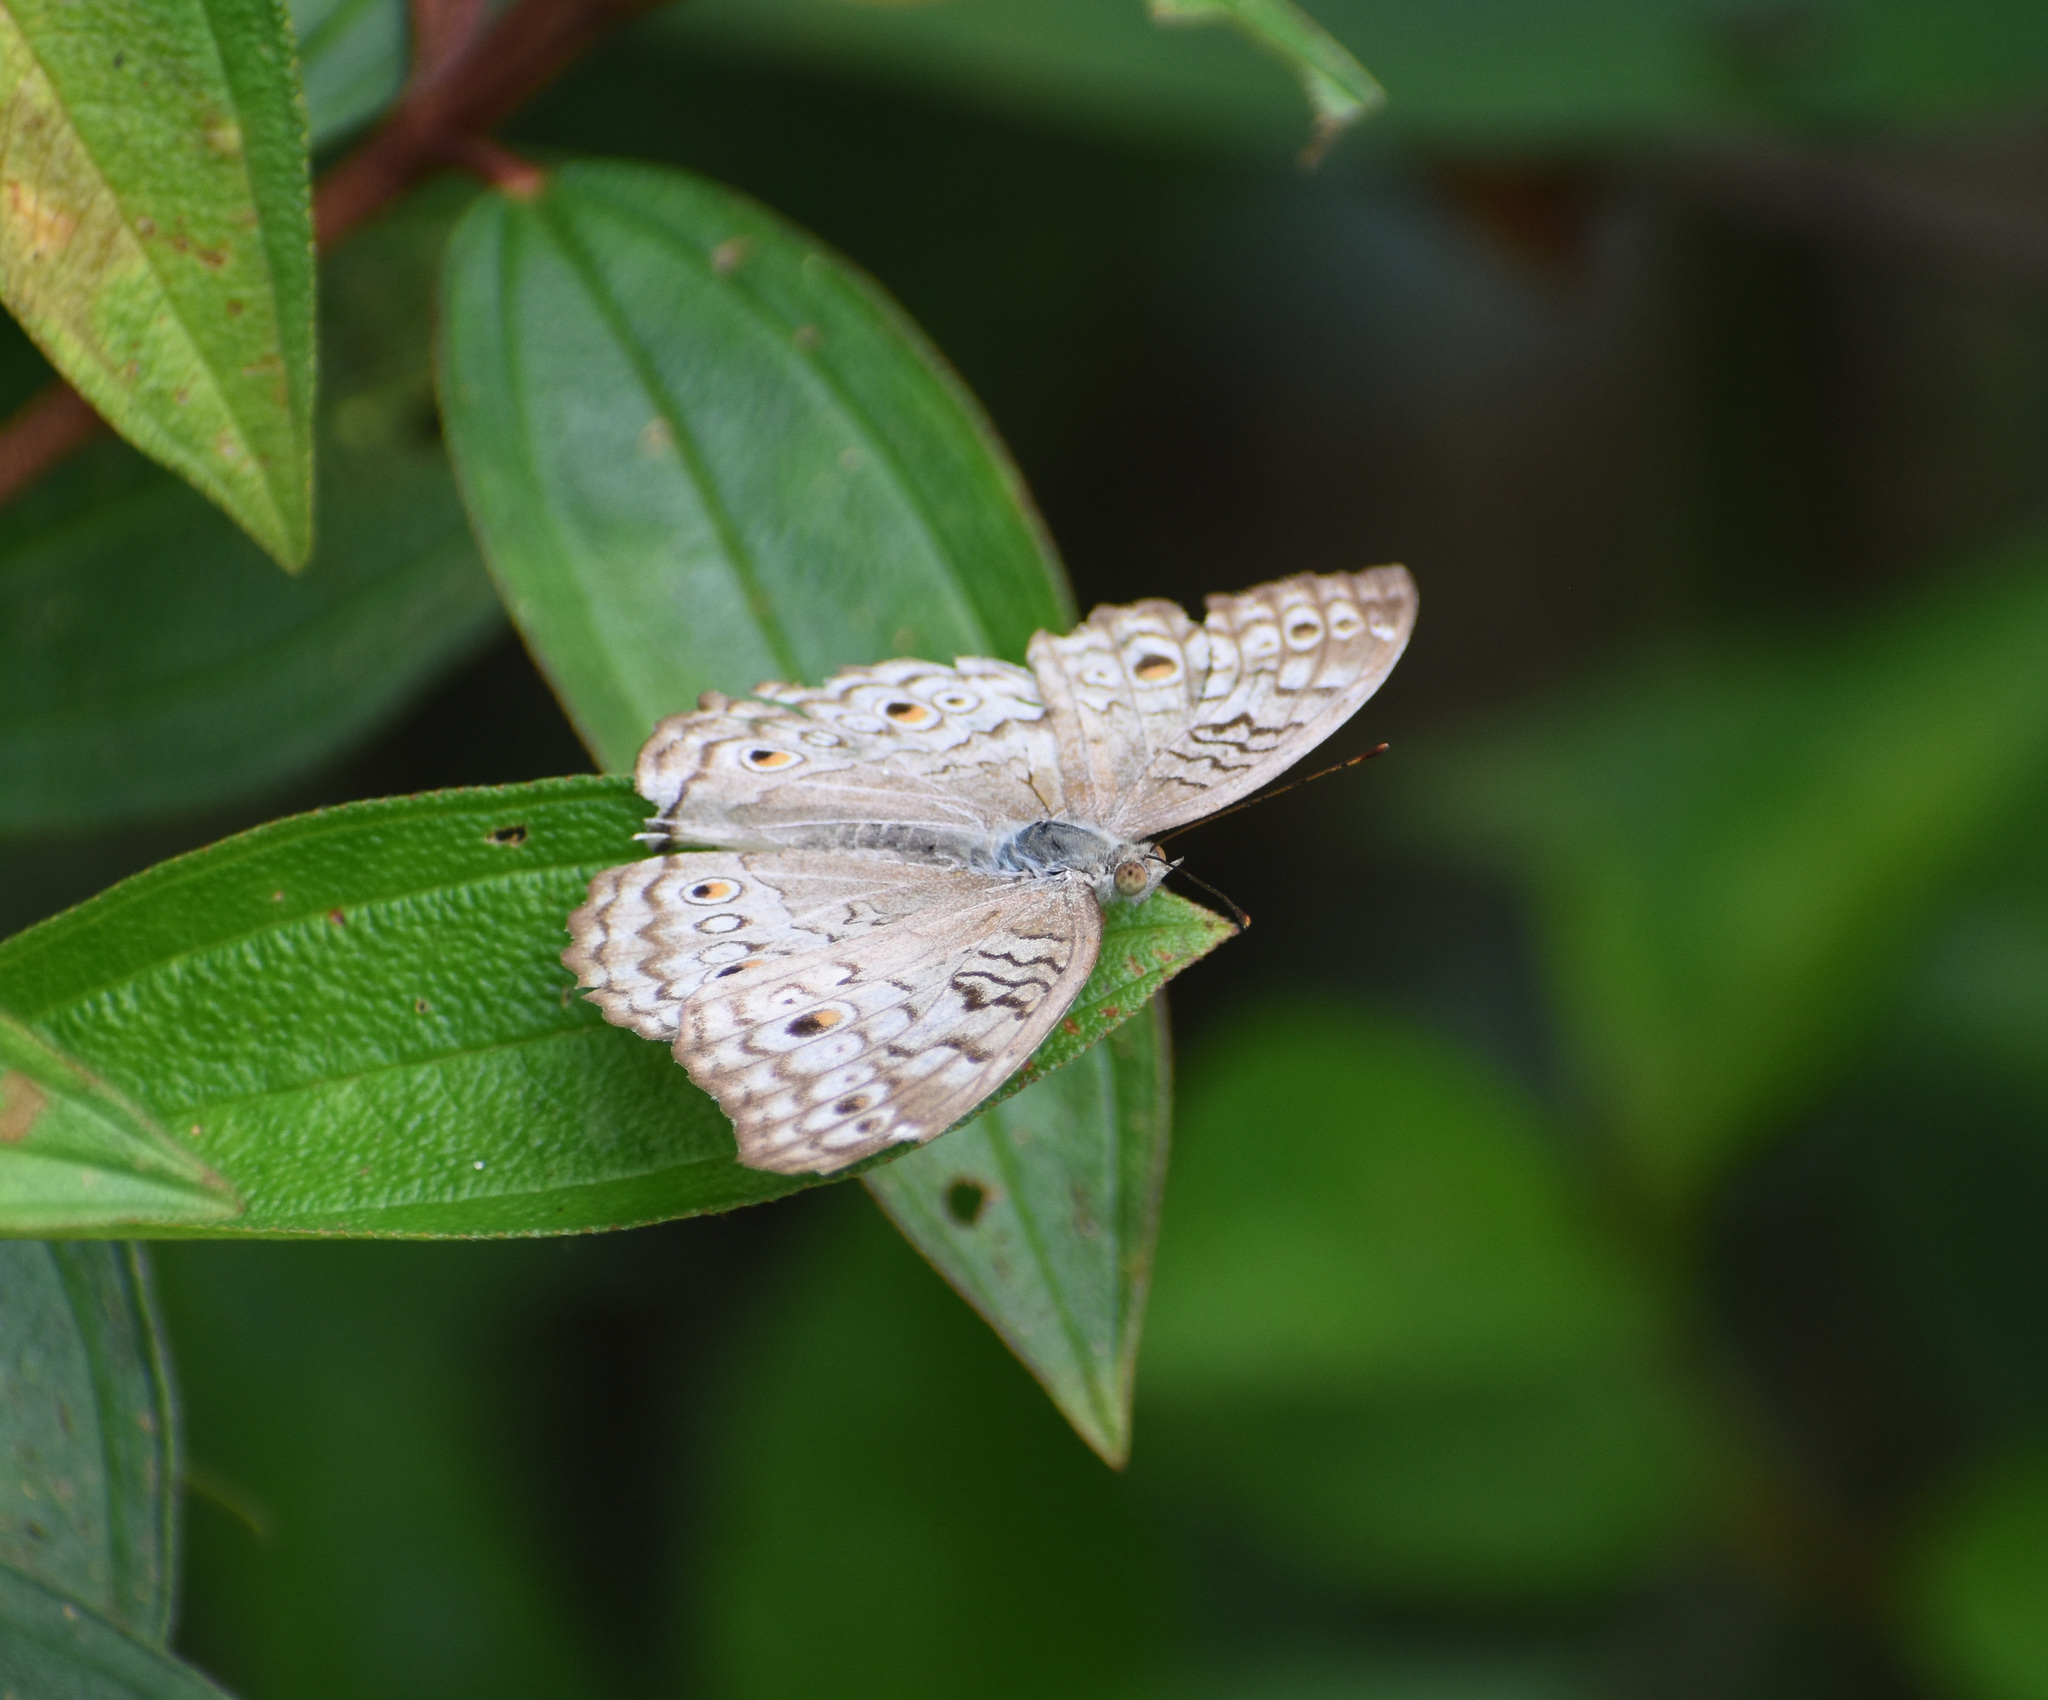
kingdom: Animalia
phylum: Arthropoda
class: Insecta
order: Lepidoptera
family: Nymphalidae
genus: Junonia
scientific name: Junonia atlites
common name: Grey pansy
